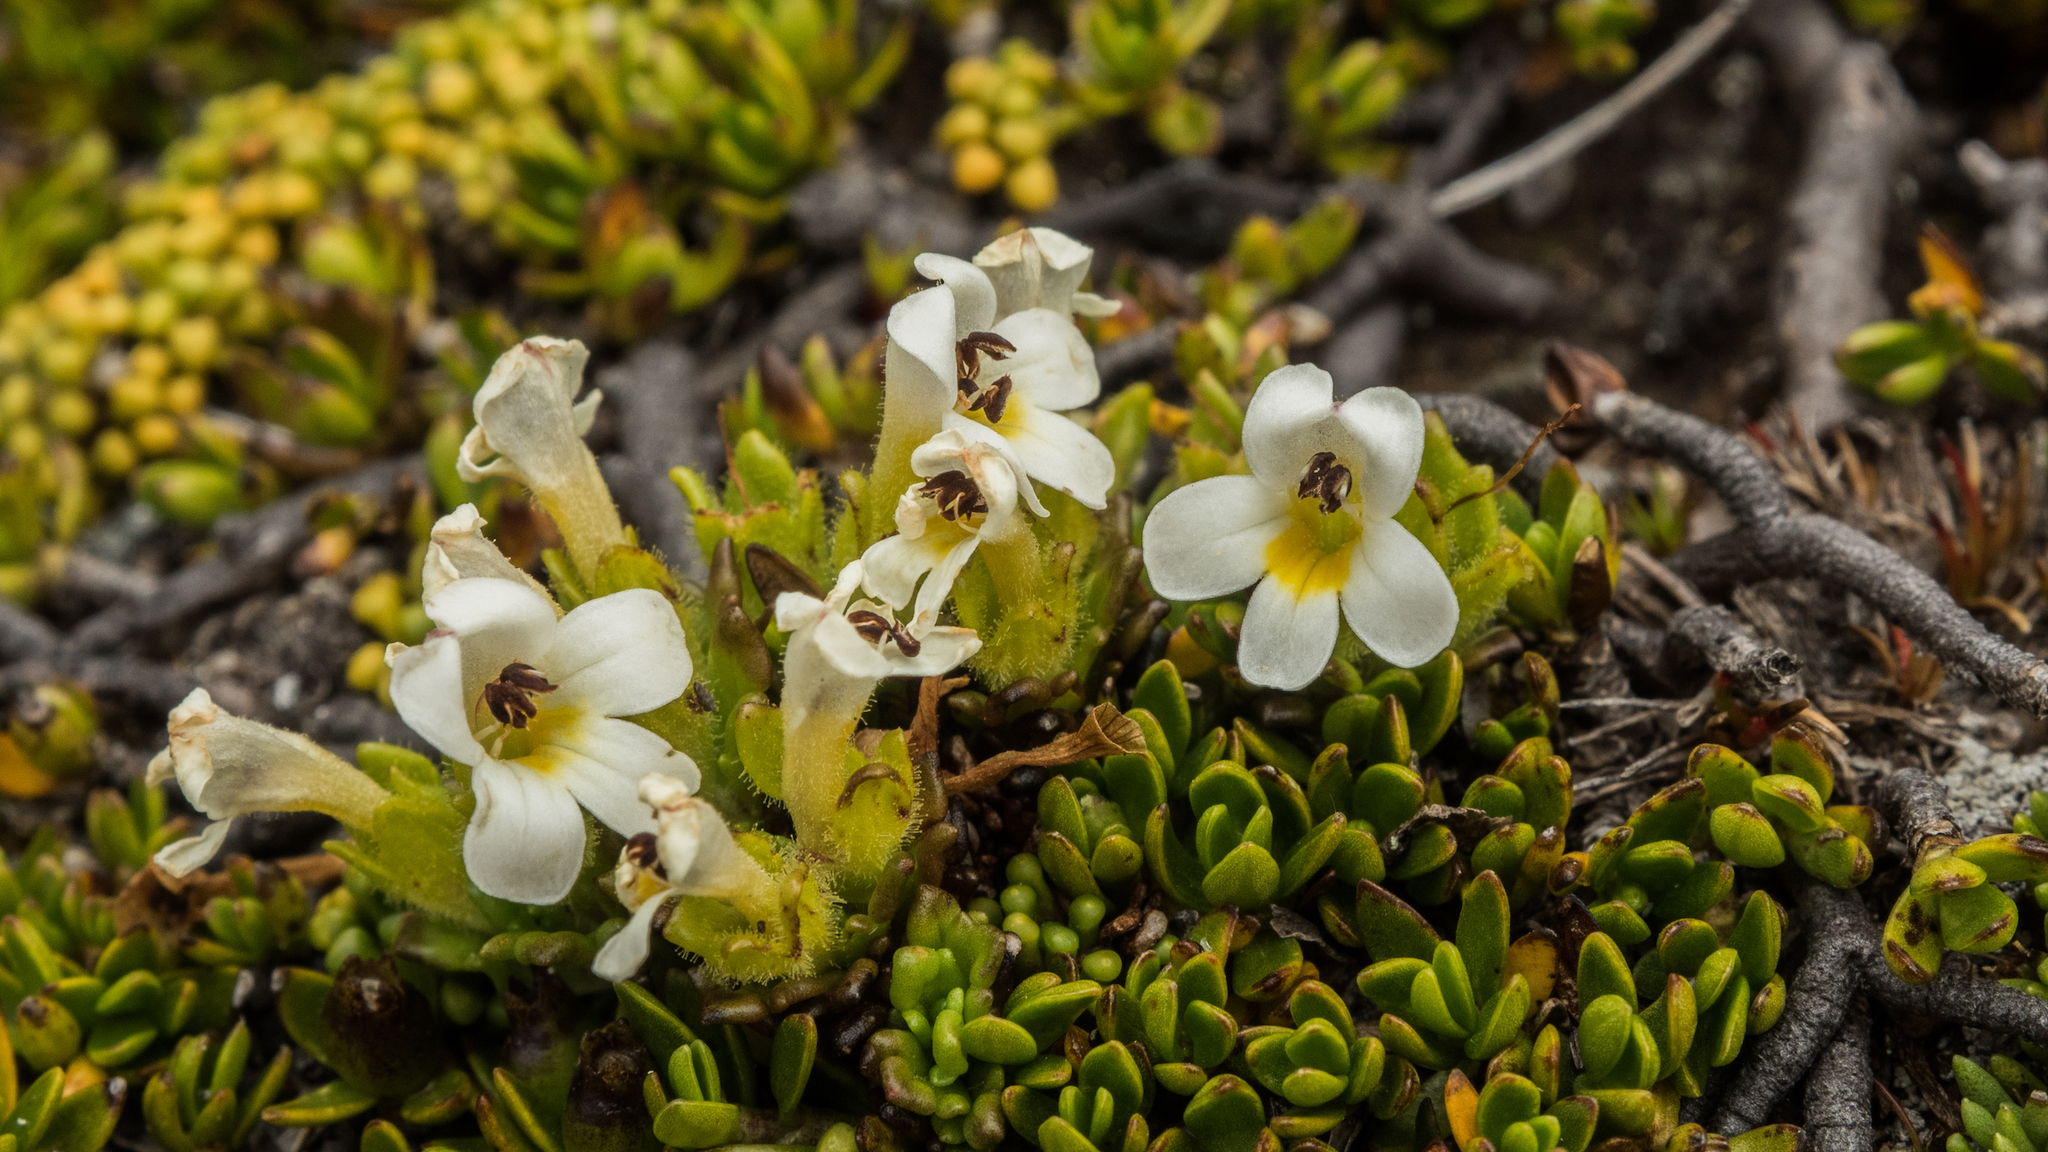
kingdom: Plantae
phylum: Tracheophyta
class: Magnoliopsida
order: Lamiales
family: Orobanchaceae
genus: Euphrasia
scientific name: Euphrasia petriei
